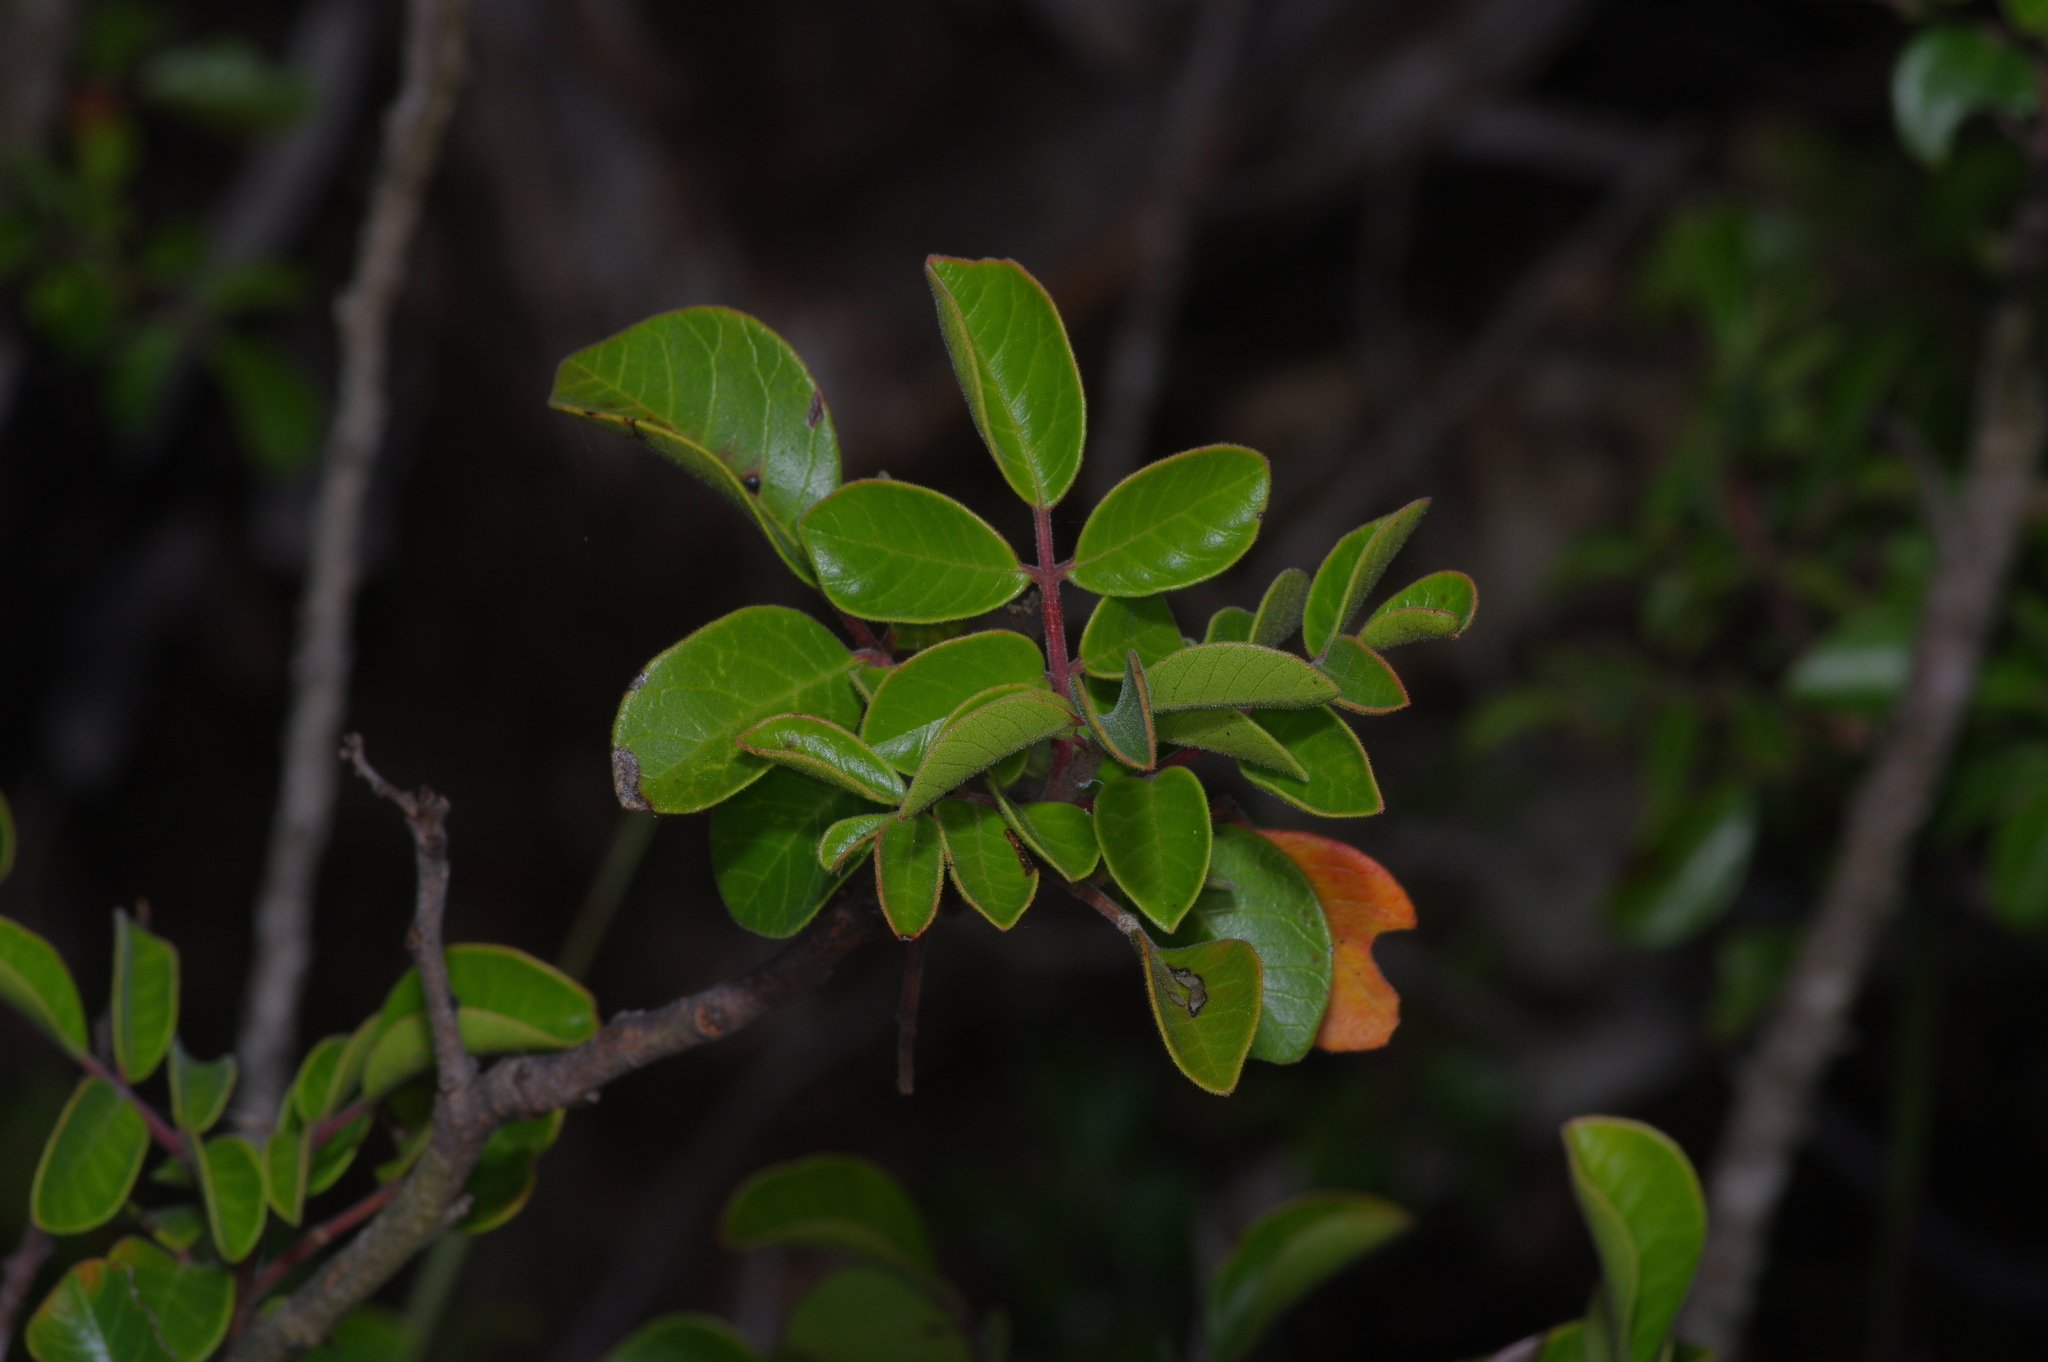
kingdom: Plantae
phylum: Tracheophyta
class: Magnoliopsida
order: Sapindales
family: Anacardiaceae
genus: Rhus
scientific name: Rhus virens
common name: Evergreen sumac
